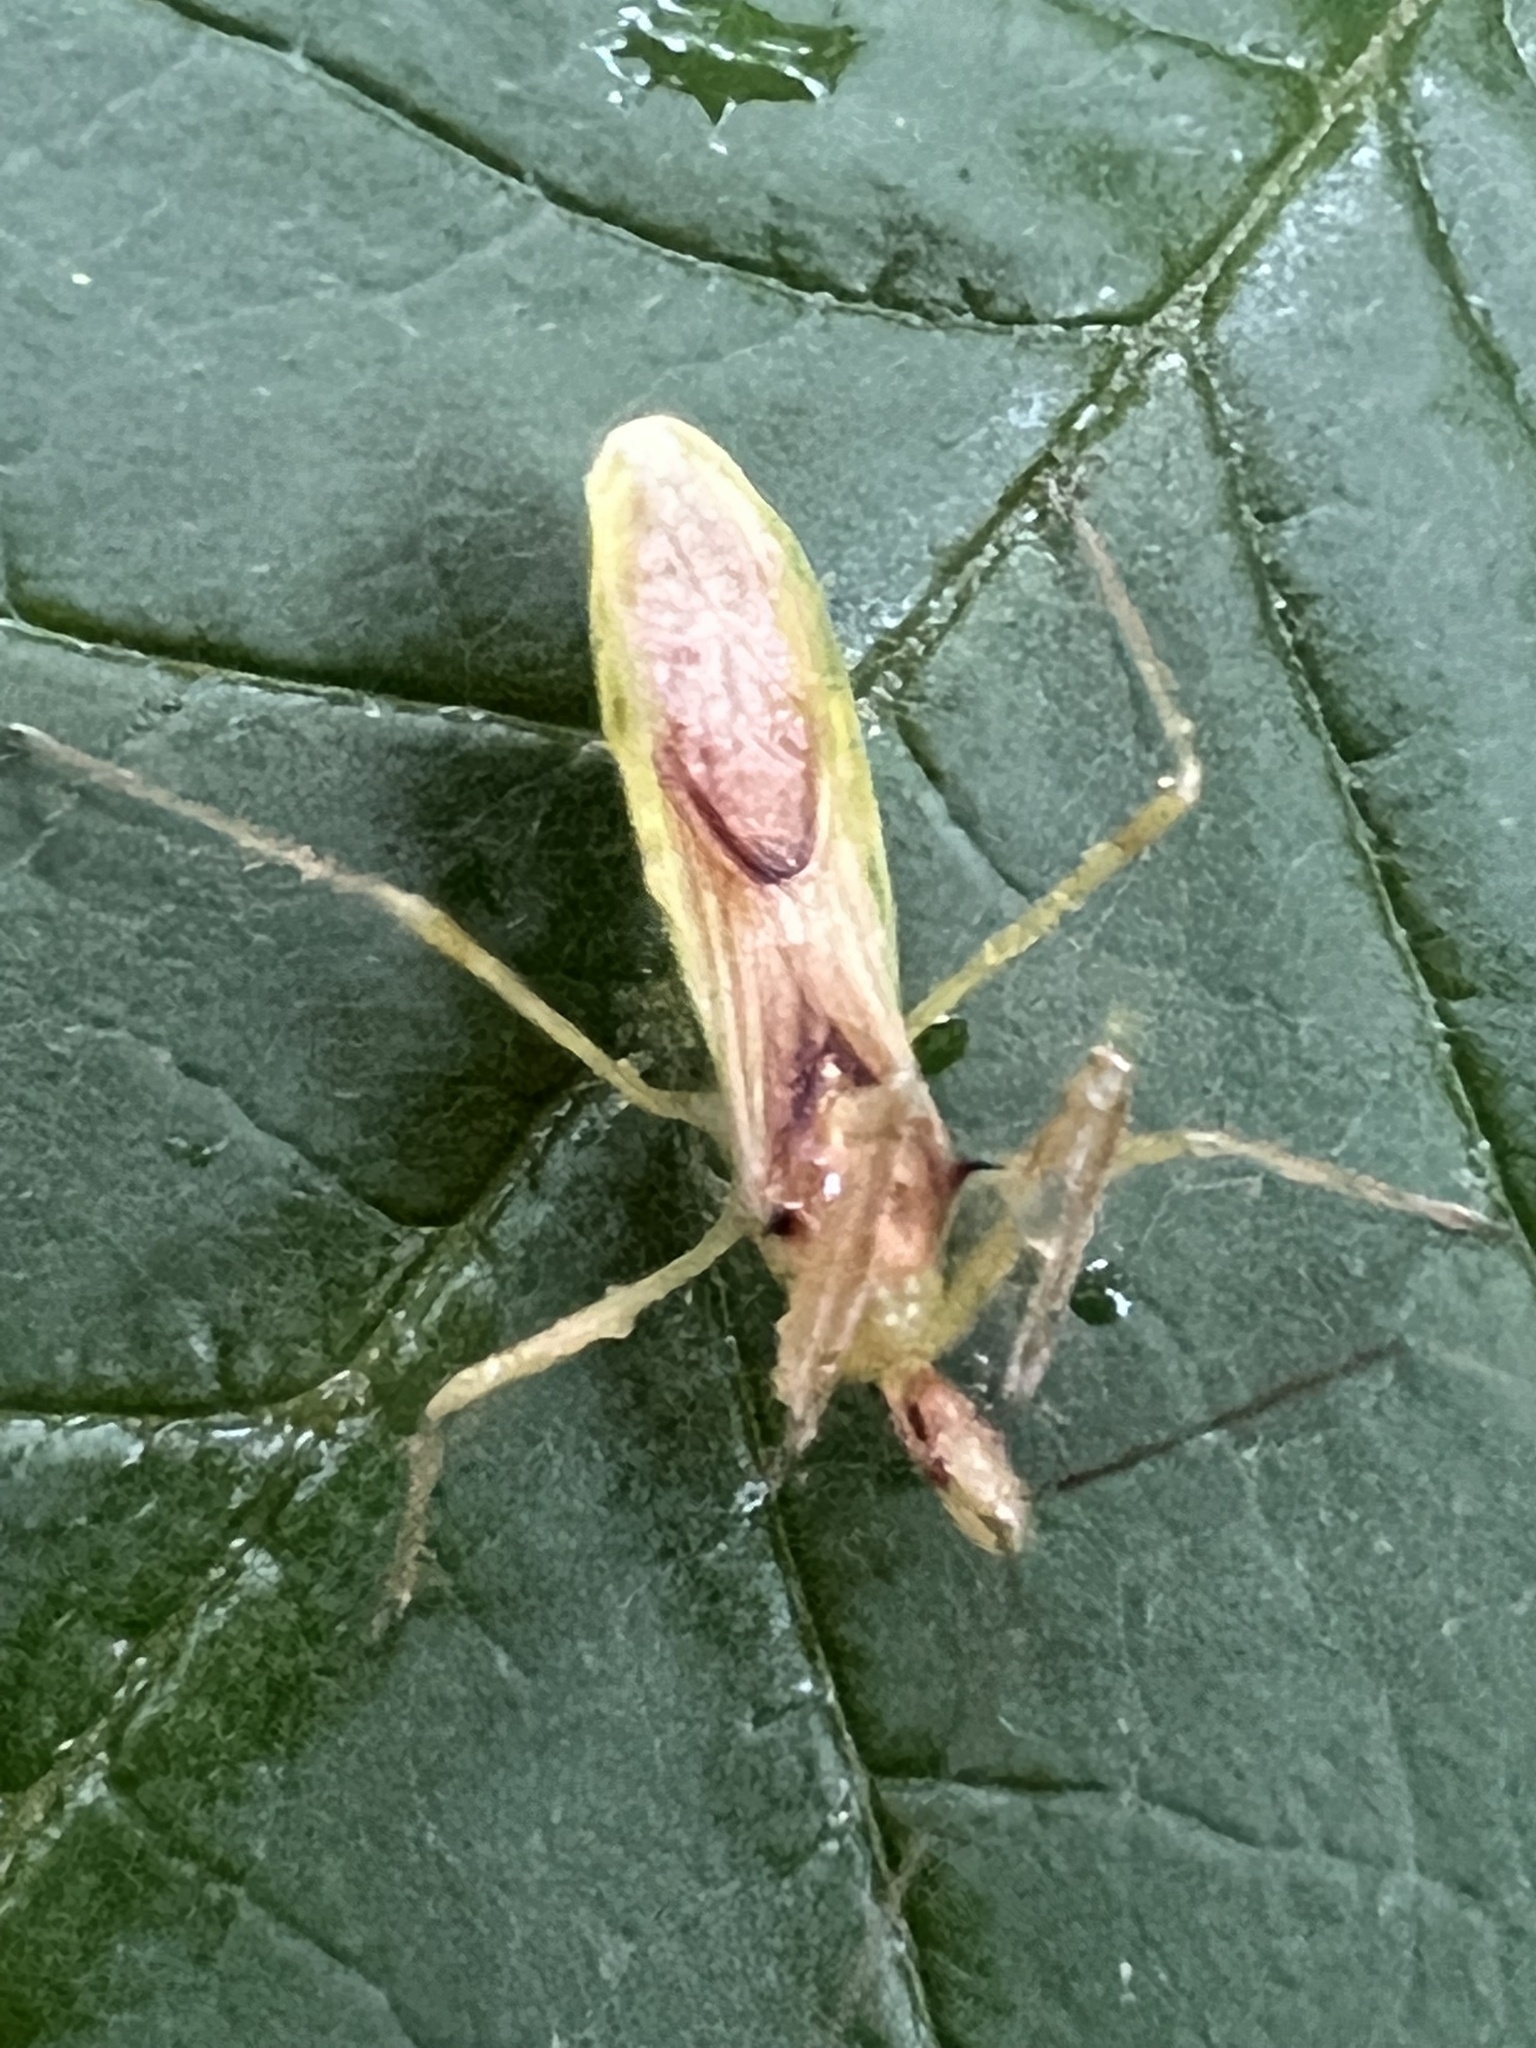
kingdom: Animalia
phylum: Arthropoda
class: Insecta
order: Hemiptera
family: Reduviidae
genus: Zelus
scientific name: Zelus luridus
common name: Pale green assassin bug
